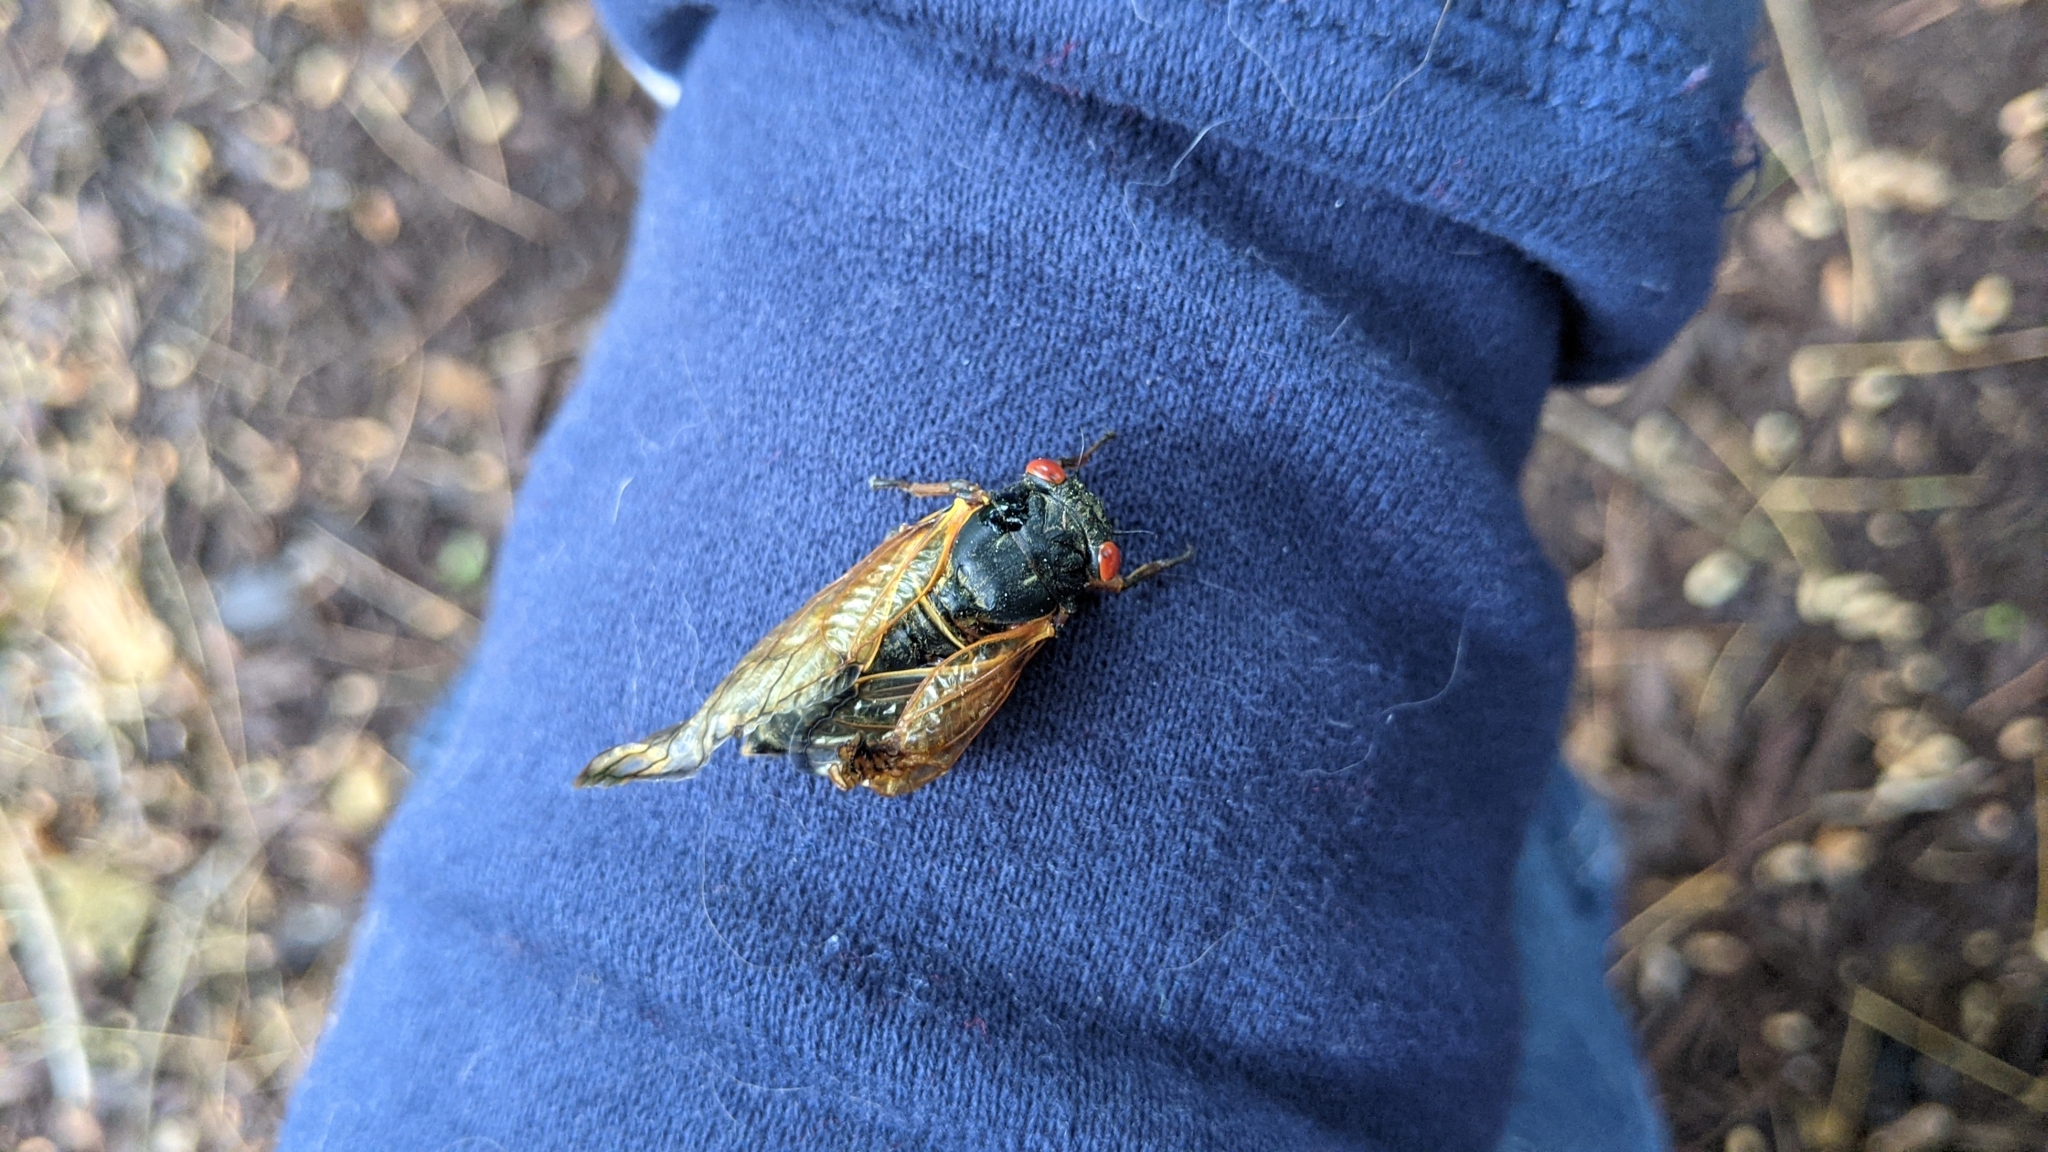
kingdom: Animalia
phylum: Arthropoda
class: Insecta
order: Hemiptera
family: Cicadidae
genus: Magicicada
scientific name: Magicicada cassini
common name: Cassin's 17-year cicada
